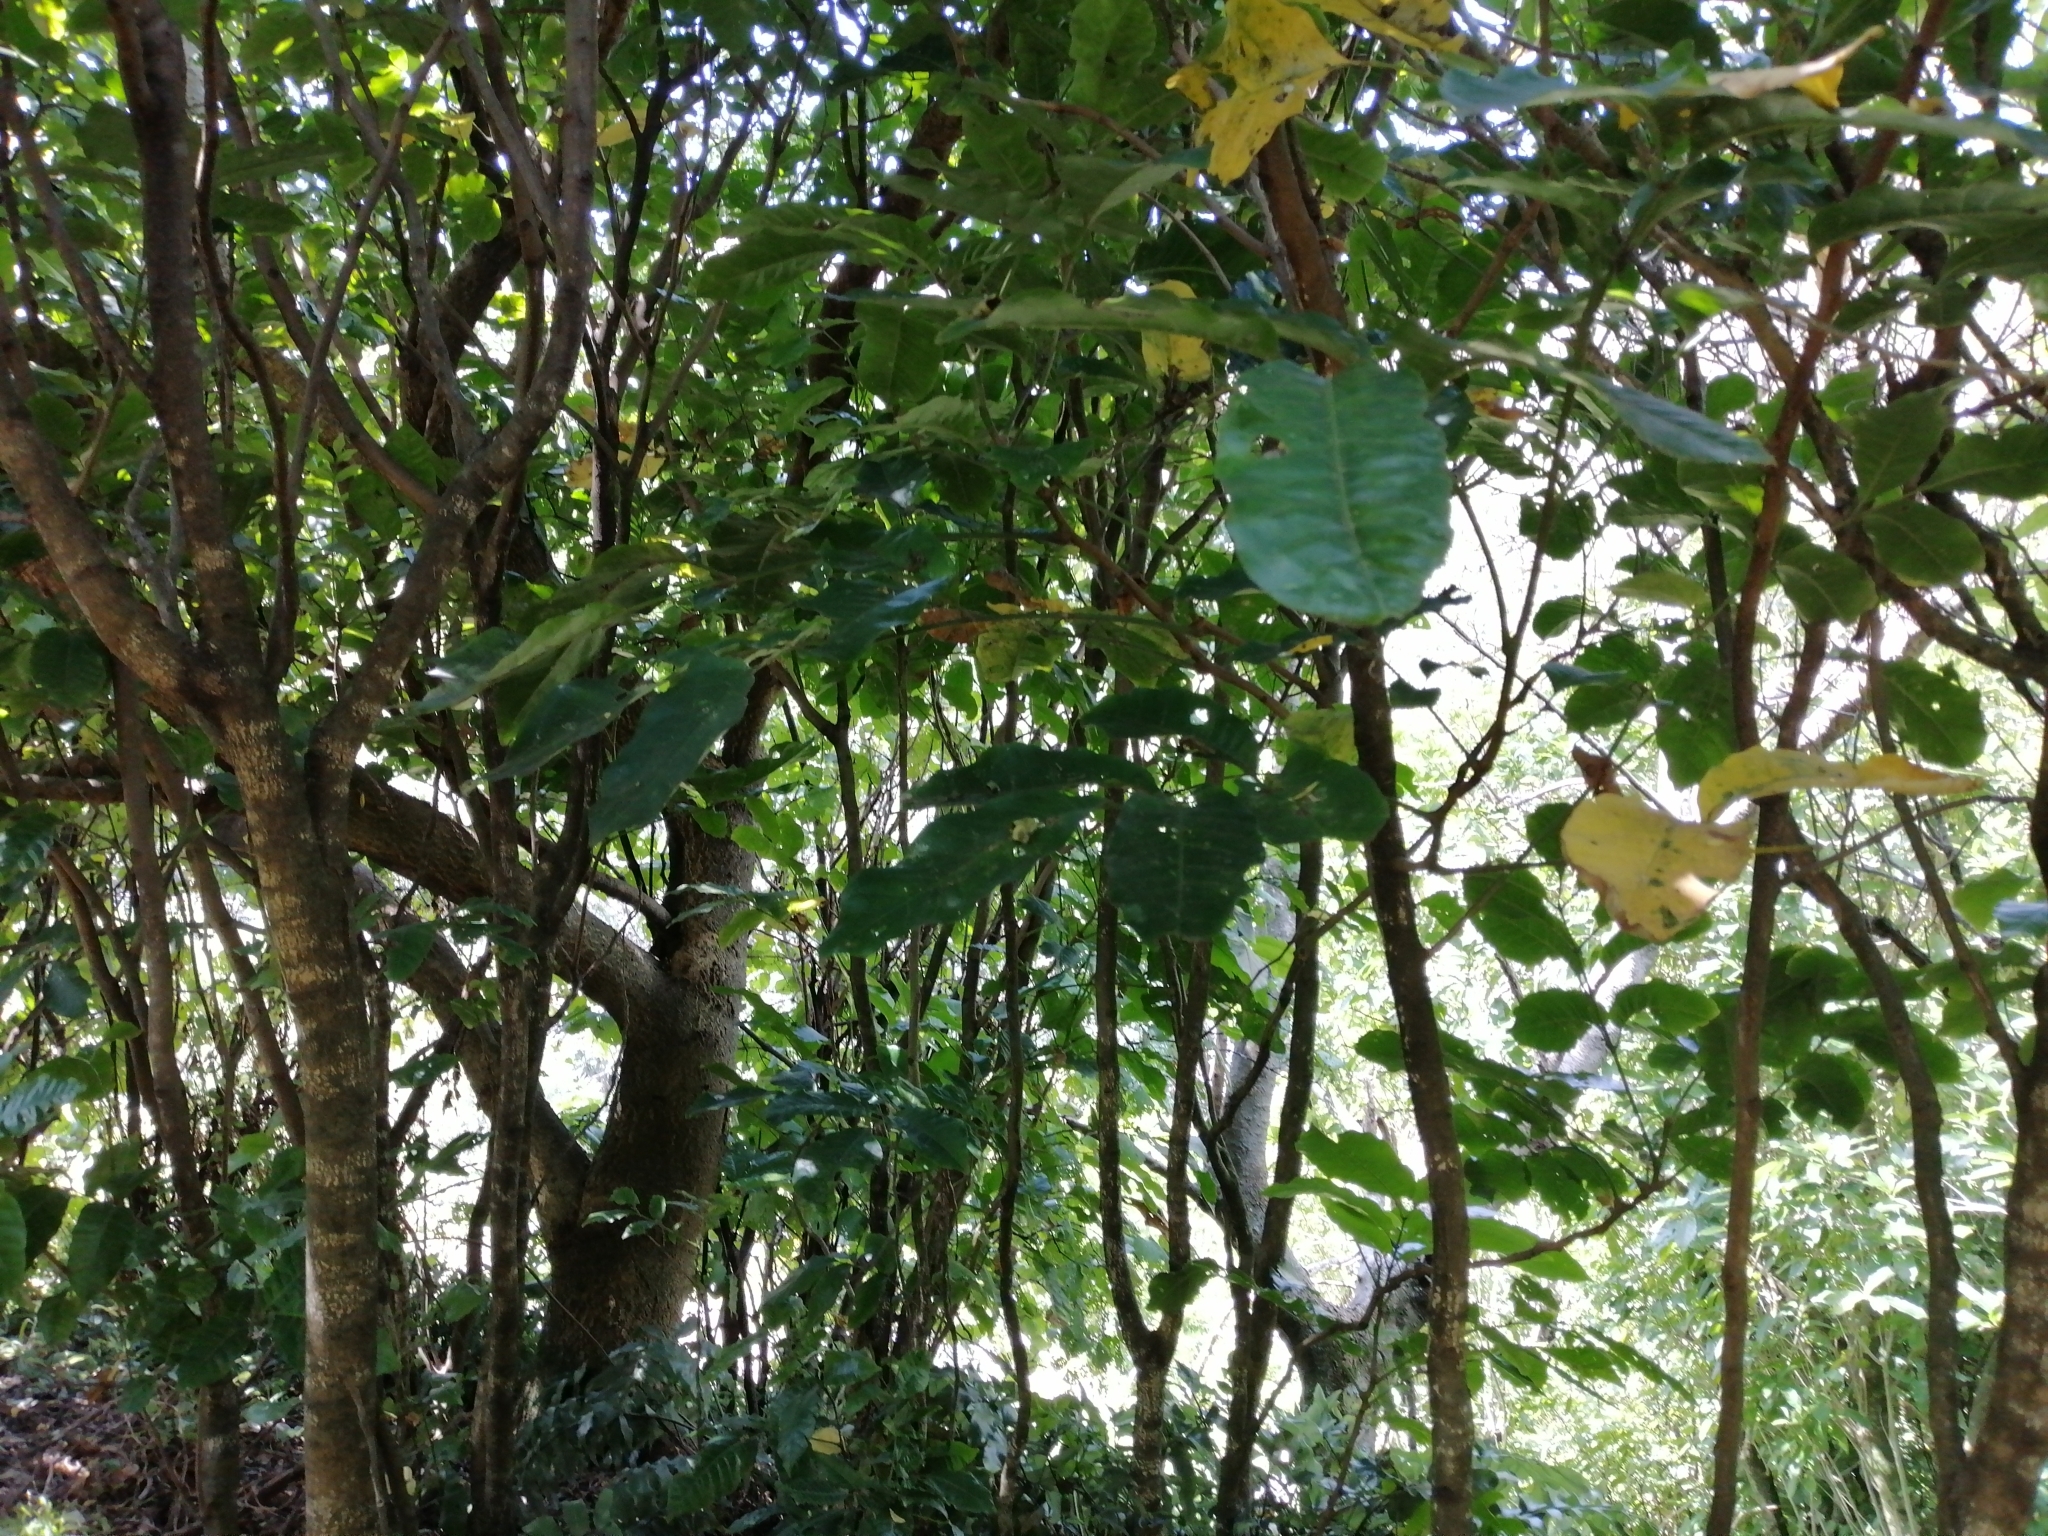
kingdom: Plantae
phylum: Tracheophyta
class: Magnoliopsida
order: Sapindales
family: Meliaceae
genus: Didymocheton
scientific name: Didymocheton spectabilis
